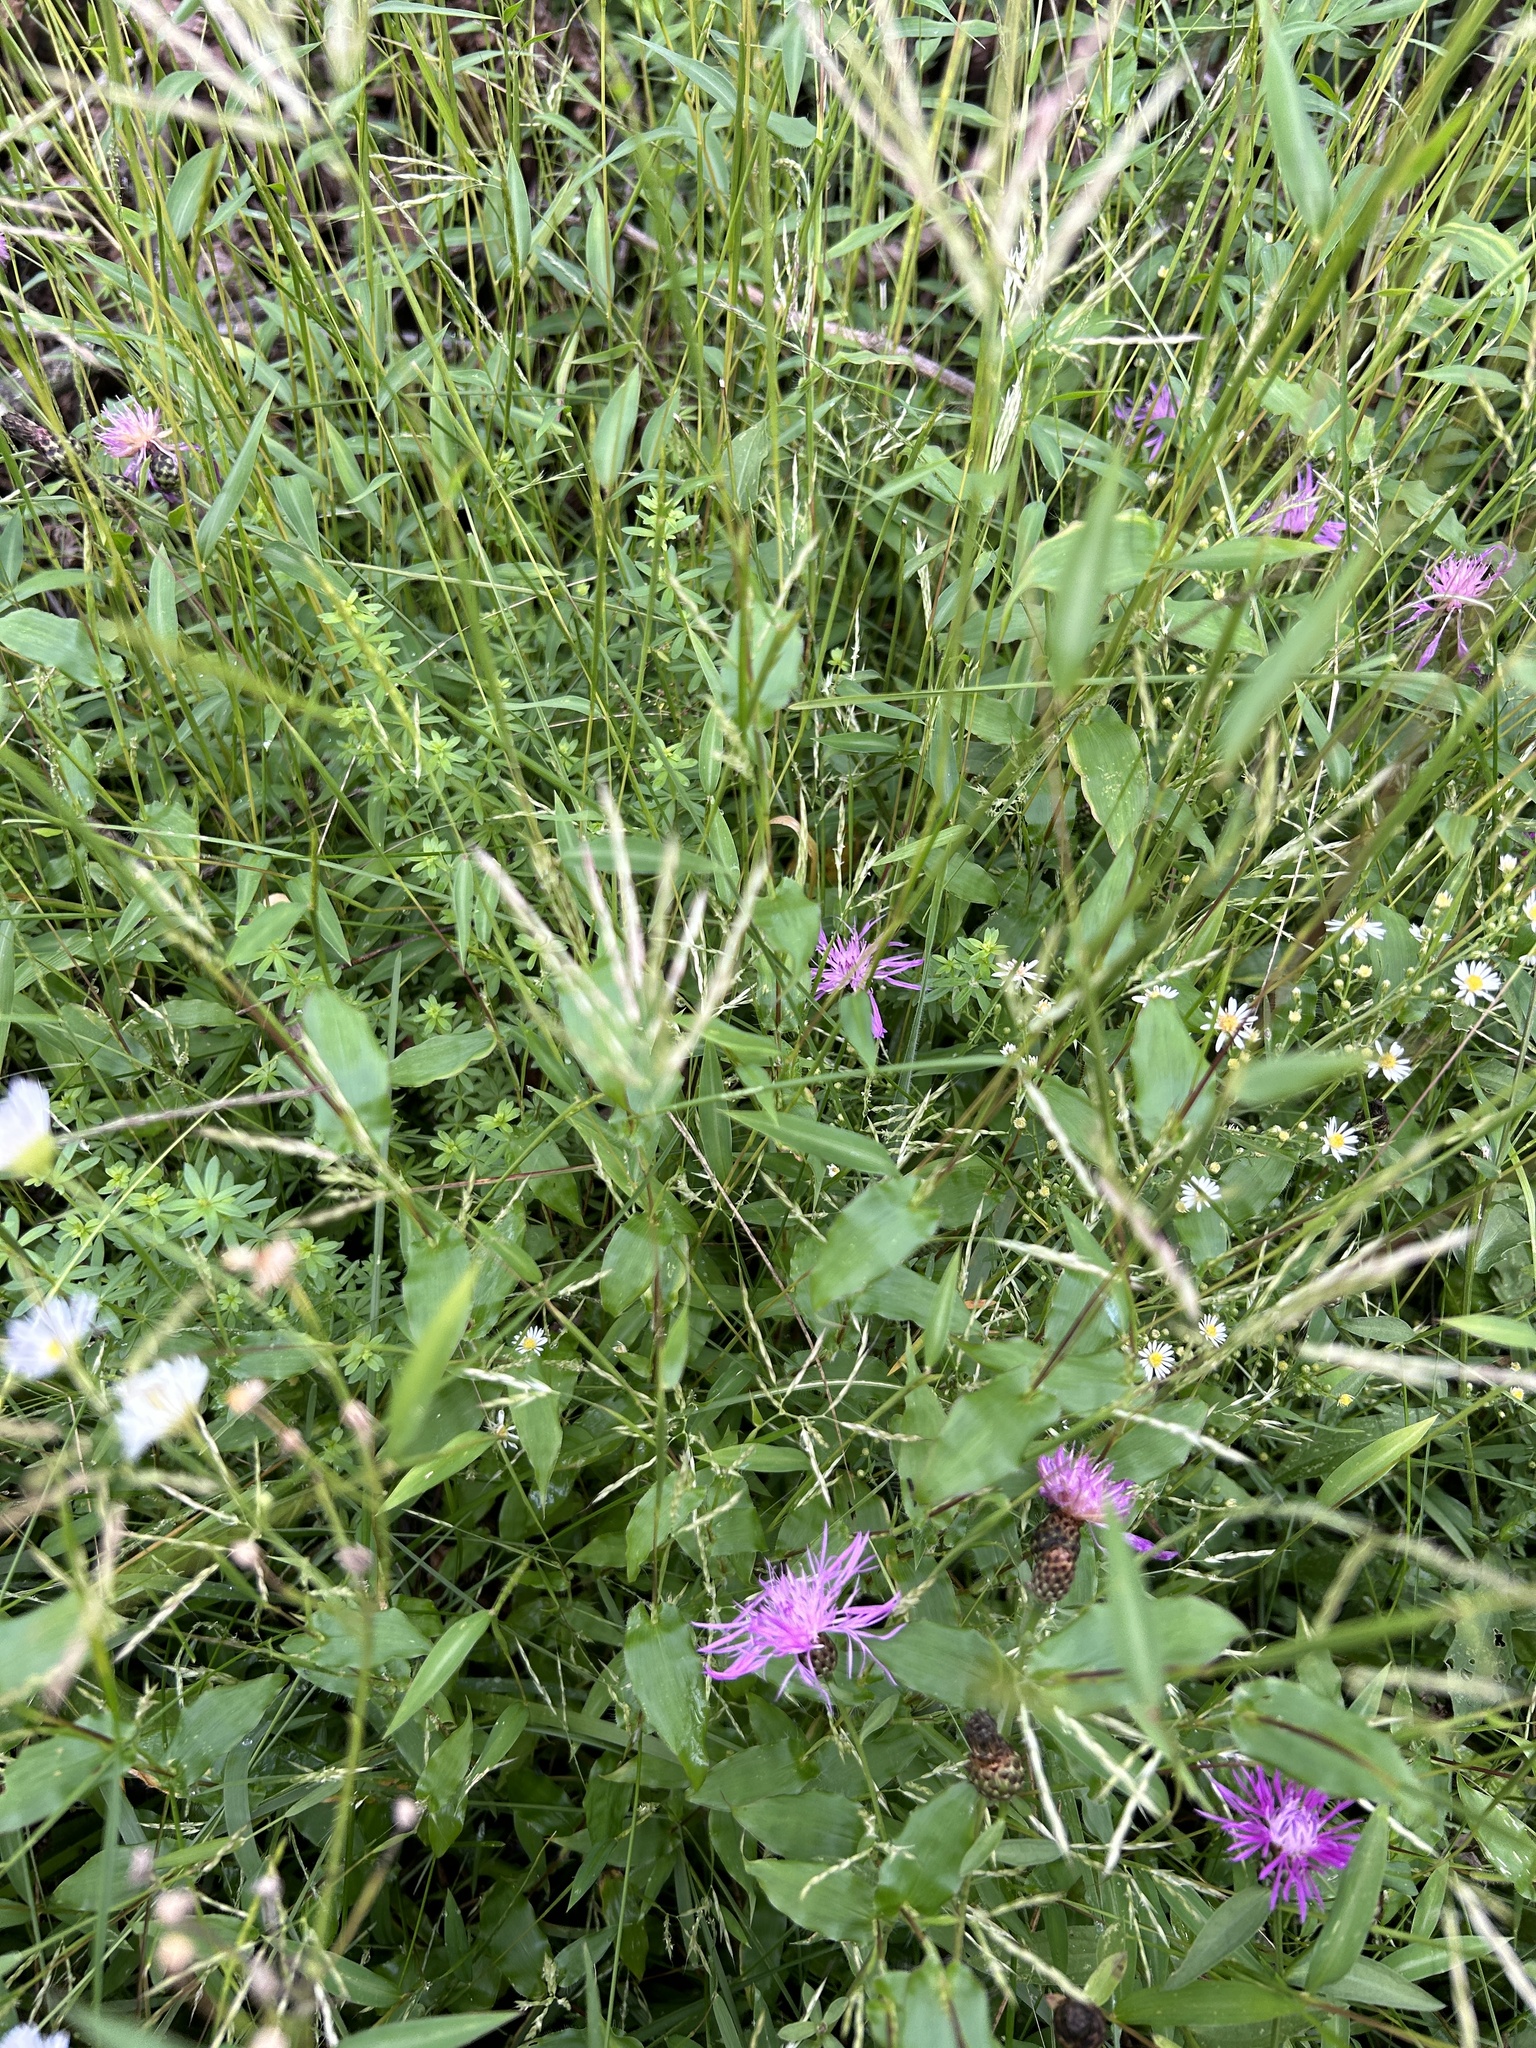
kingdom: Plantae
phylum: Tracheophyta
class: Liliopsida
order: Poales
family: Poaceae
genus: Arthraxon
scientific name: Arthraxon hispidus
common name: Small carpgrass
